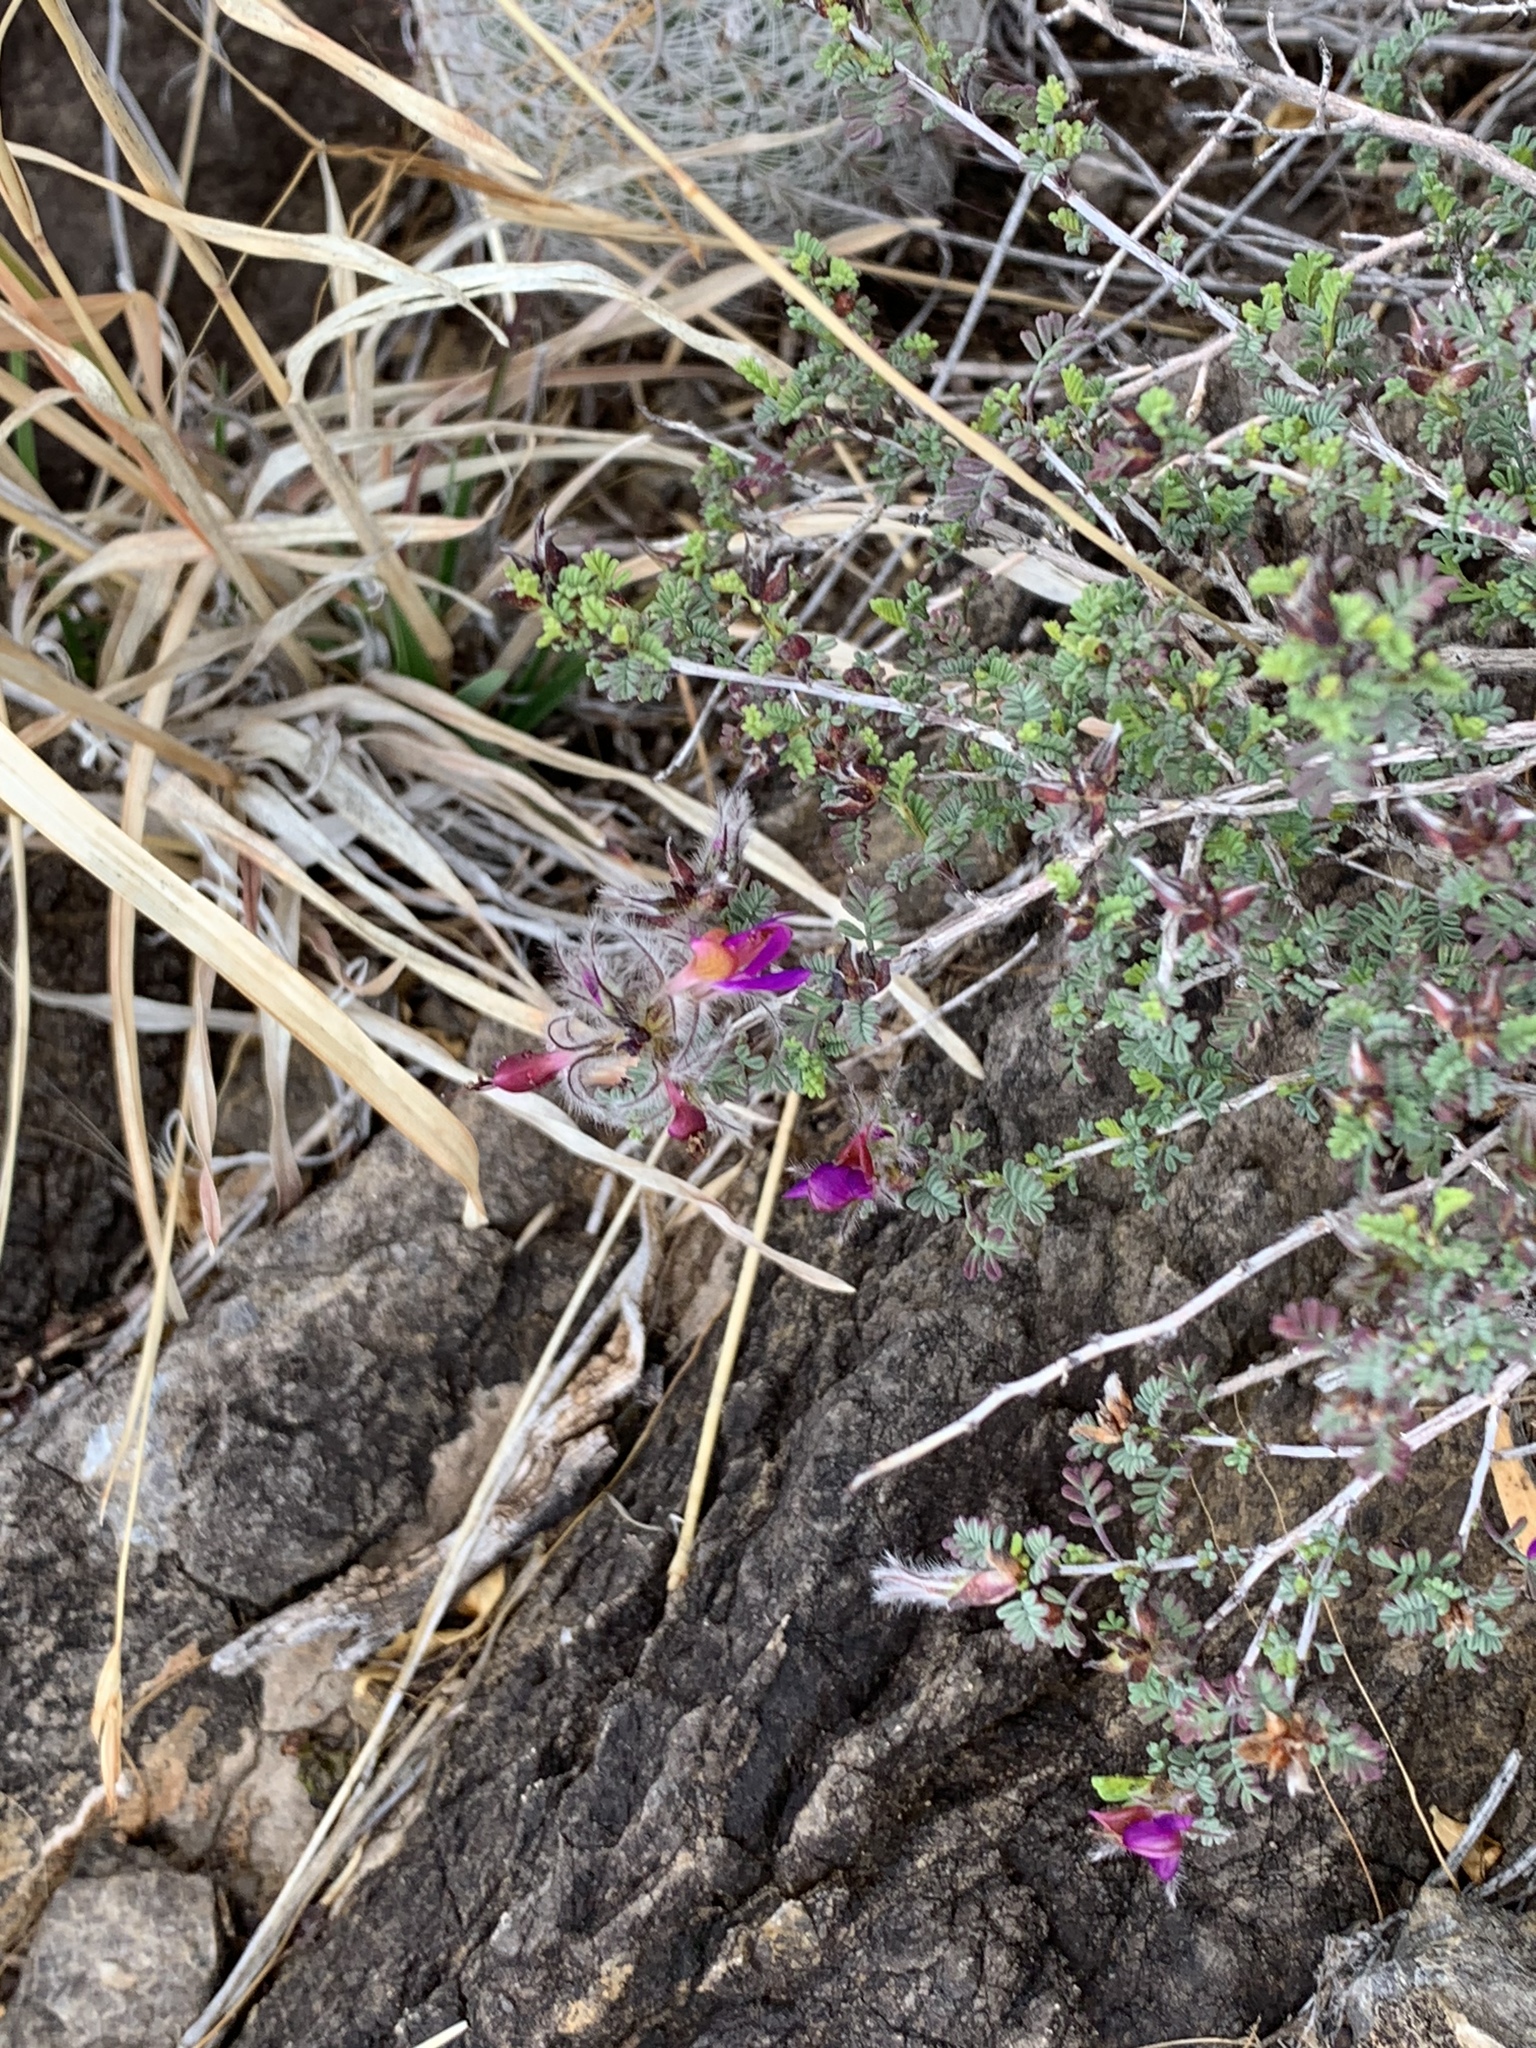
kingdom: Plantae
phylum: Tracheophyta
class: Magnoliopsida
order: Fabales
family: Fabaceae
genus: Dalea
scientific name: Dalea formosa
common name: Feather-plume dalea
